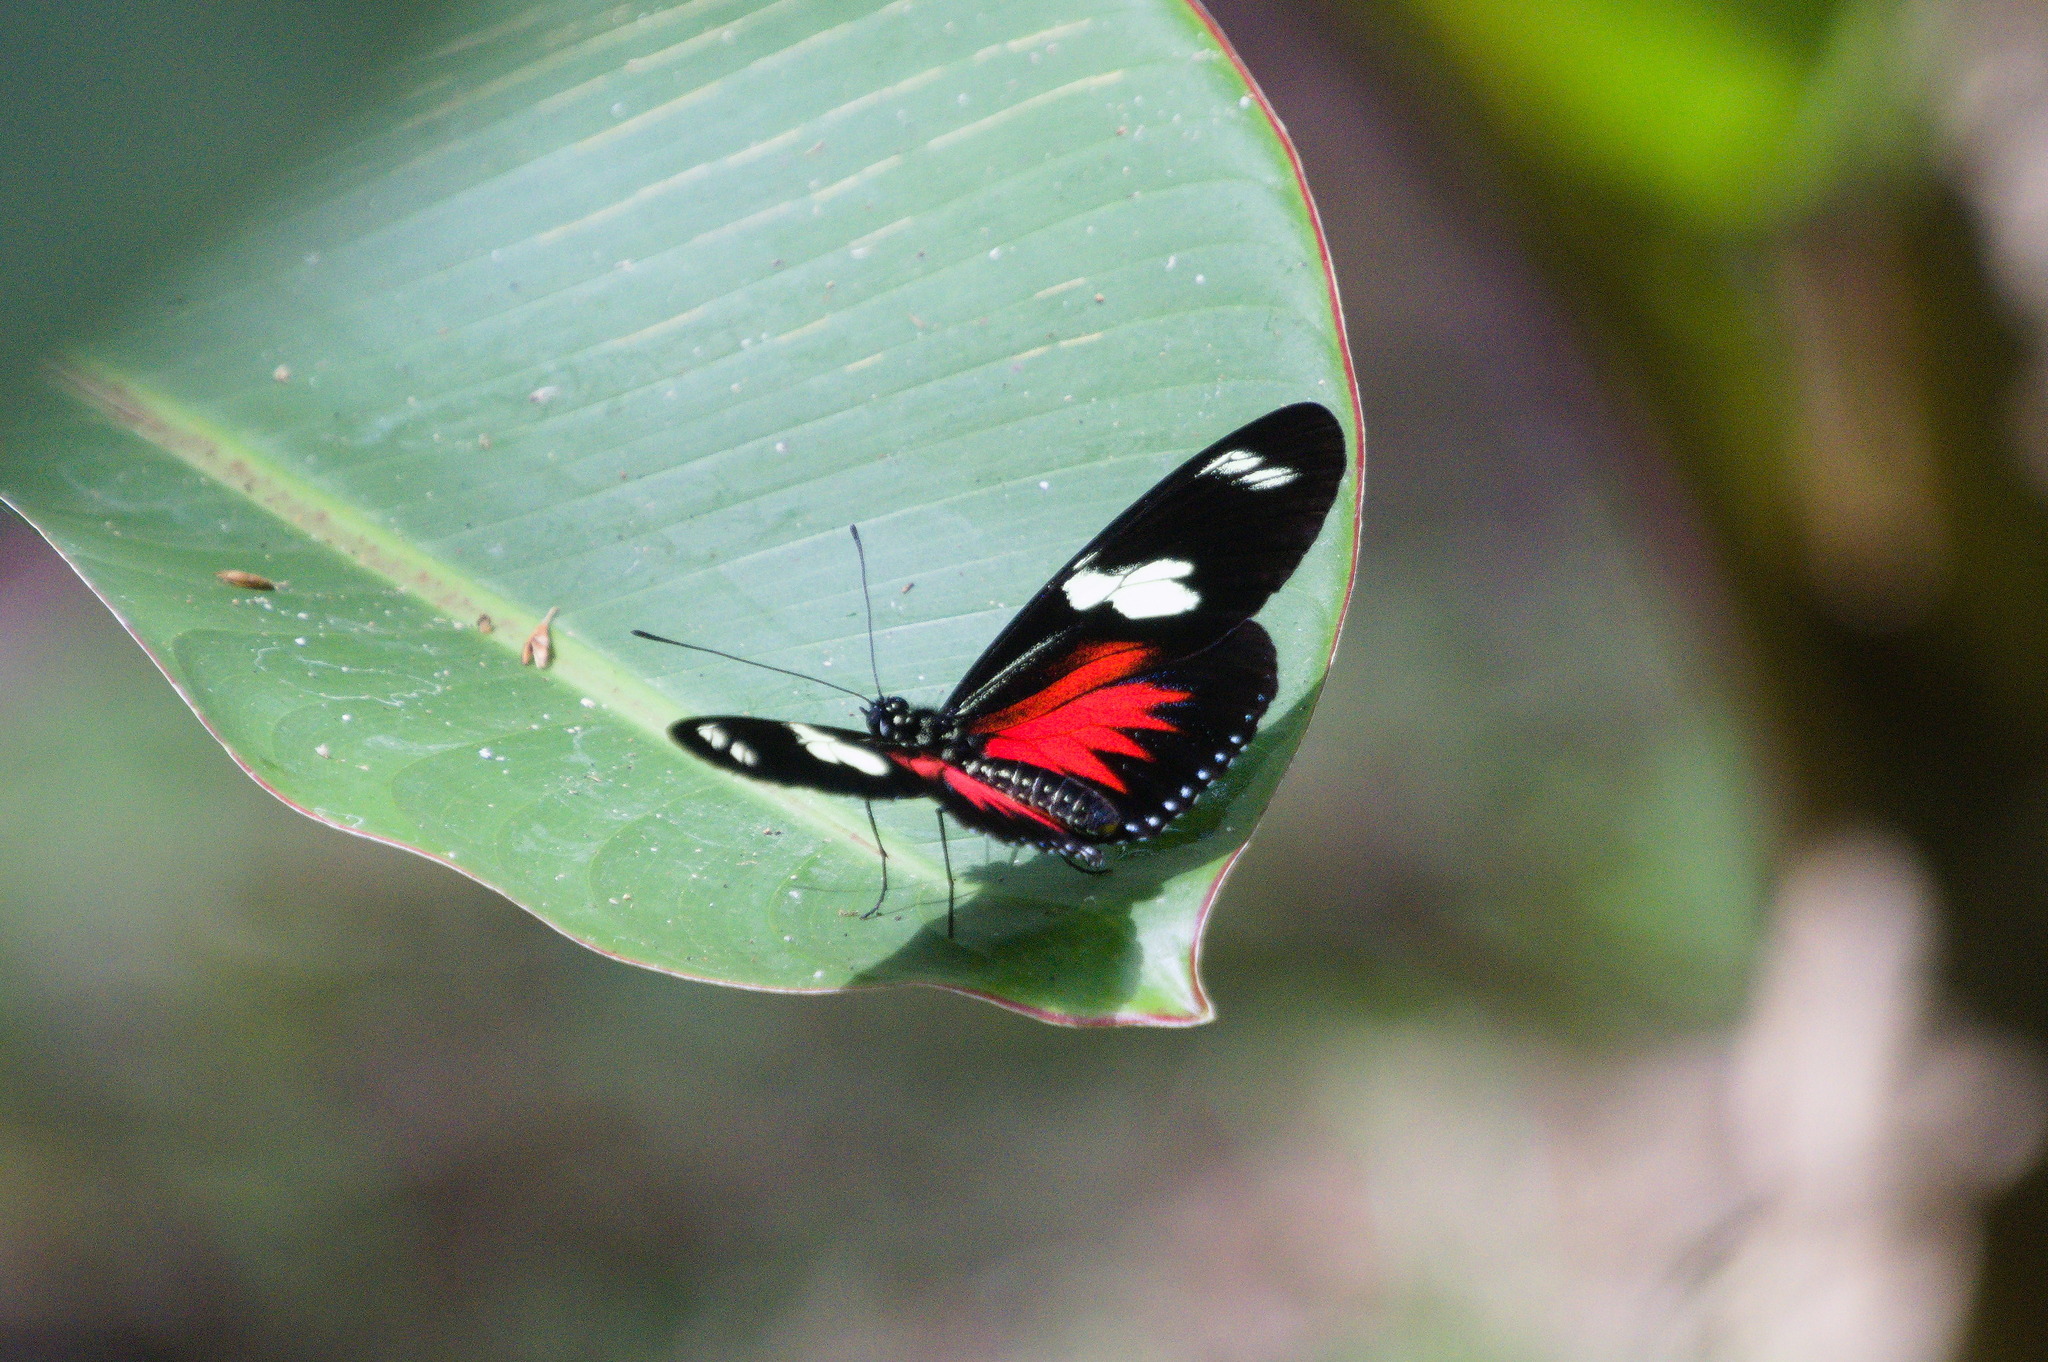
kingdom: Animalia
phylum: Arthropoda
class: Insecta
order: Lepidoptera
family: Nymphalidae
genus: Heliconius
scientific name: Heliconius doris
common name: Doris longwing
